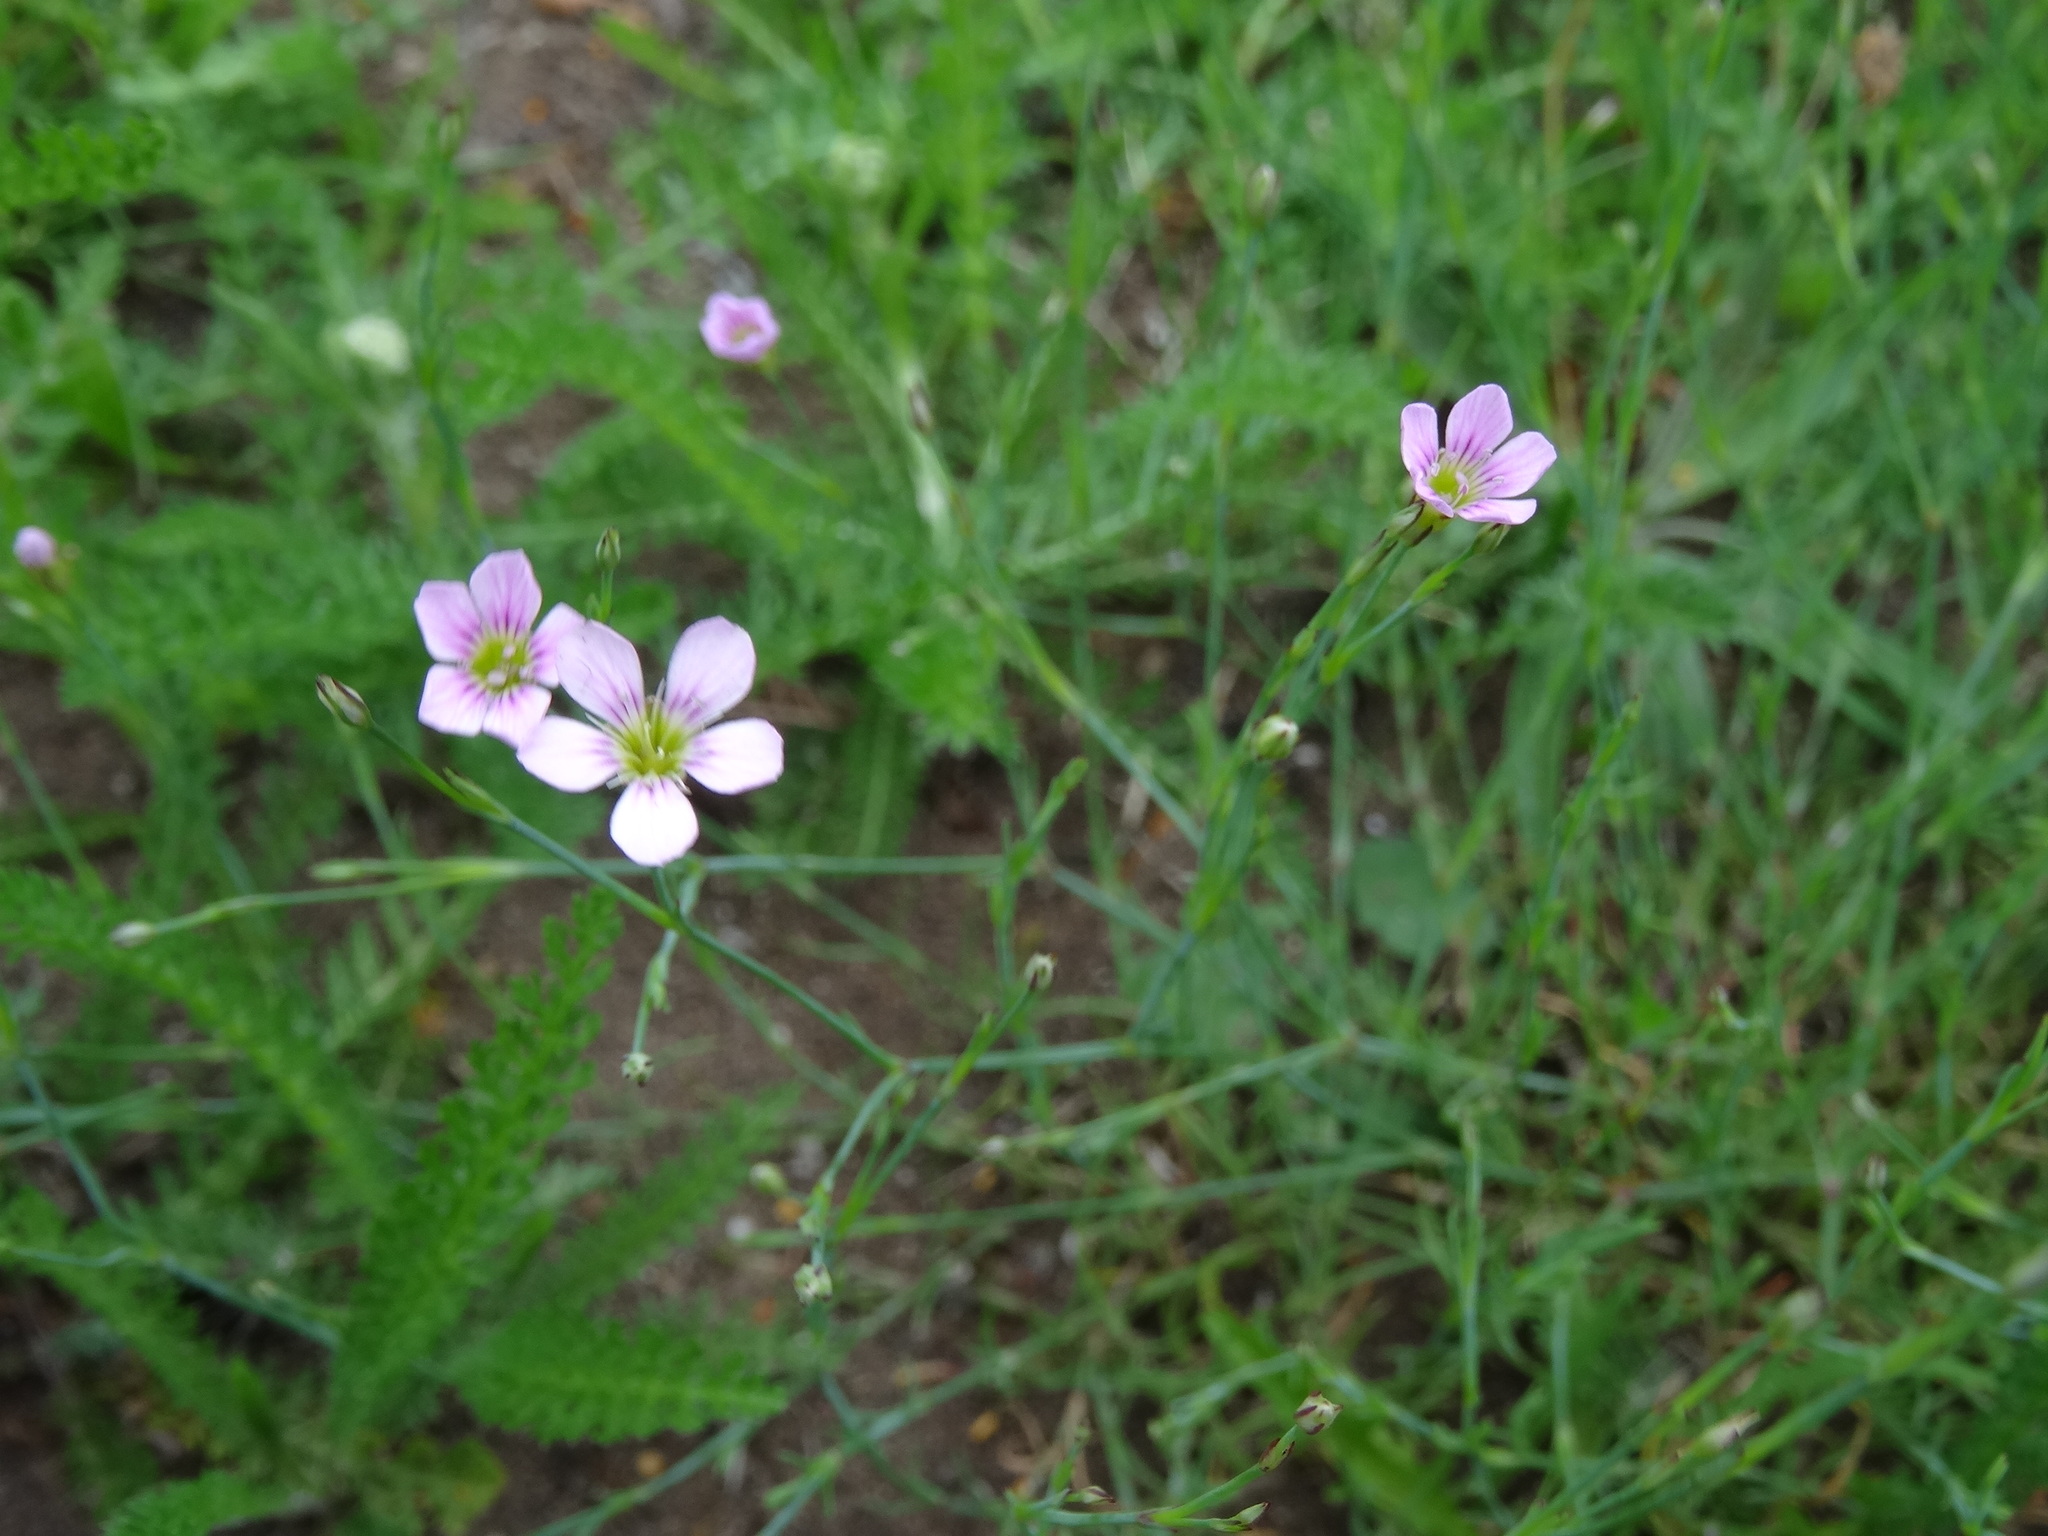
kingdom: Plantae
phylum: Tracheophyta
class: Magnoliopsida
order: Caryophyllales
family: Caryophyllaceae
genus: Petrorhagia
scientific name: Petrorhagia saxifraga
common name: Tunicflower
